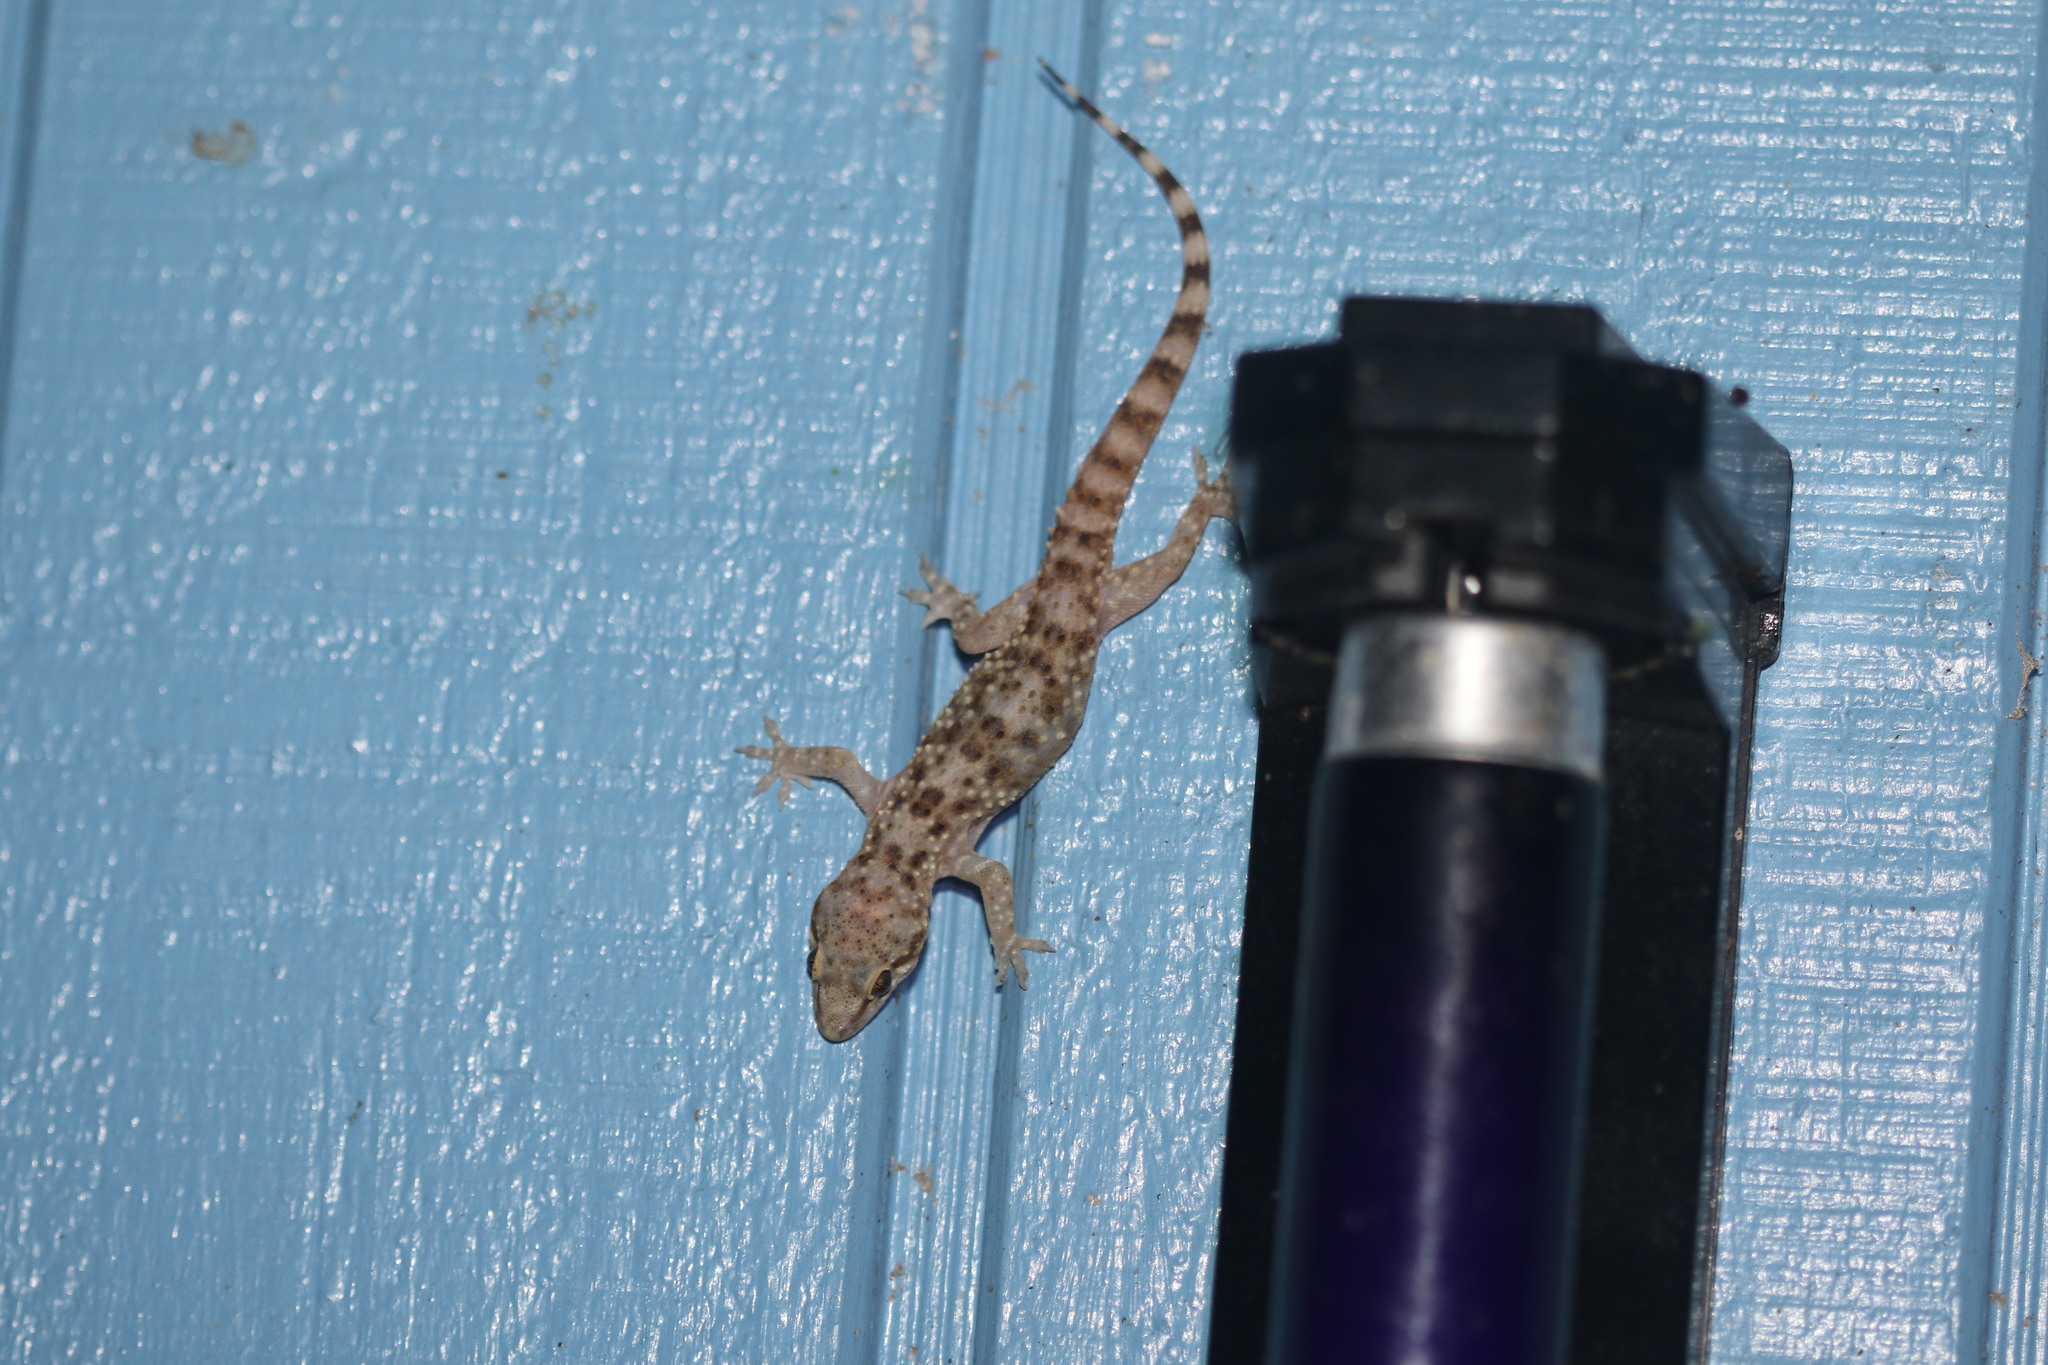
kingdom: Animalia
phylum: Chordata
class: Squamata
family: Gekkonidae
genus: Hemidactylus
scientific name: Hemidactylus turcicus
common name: Turkish gecko
